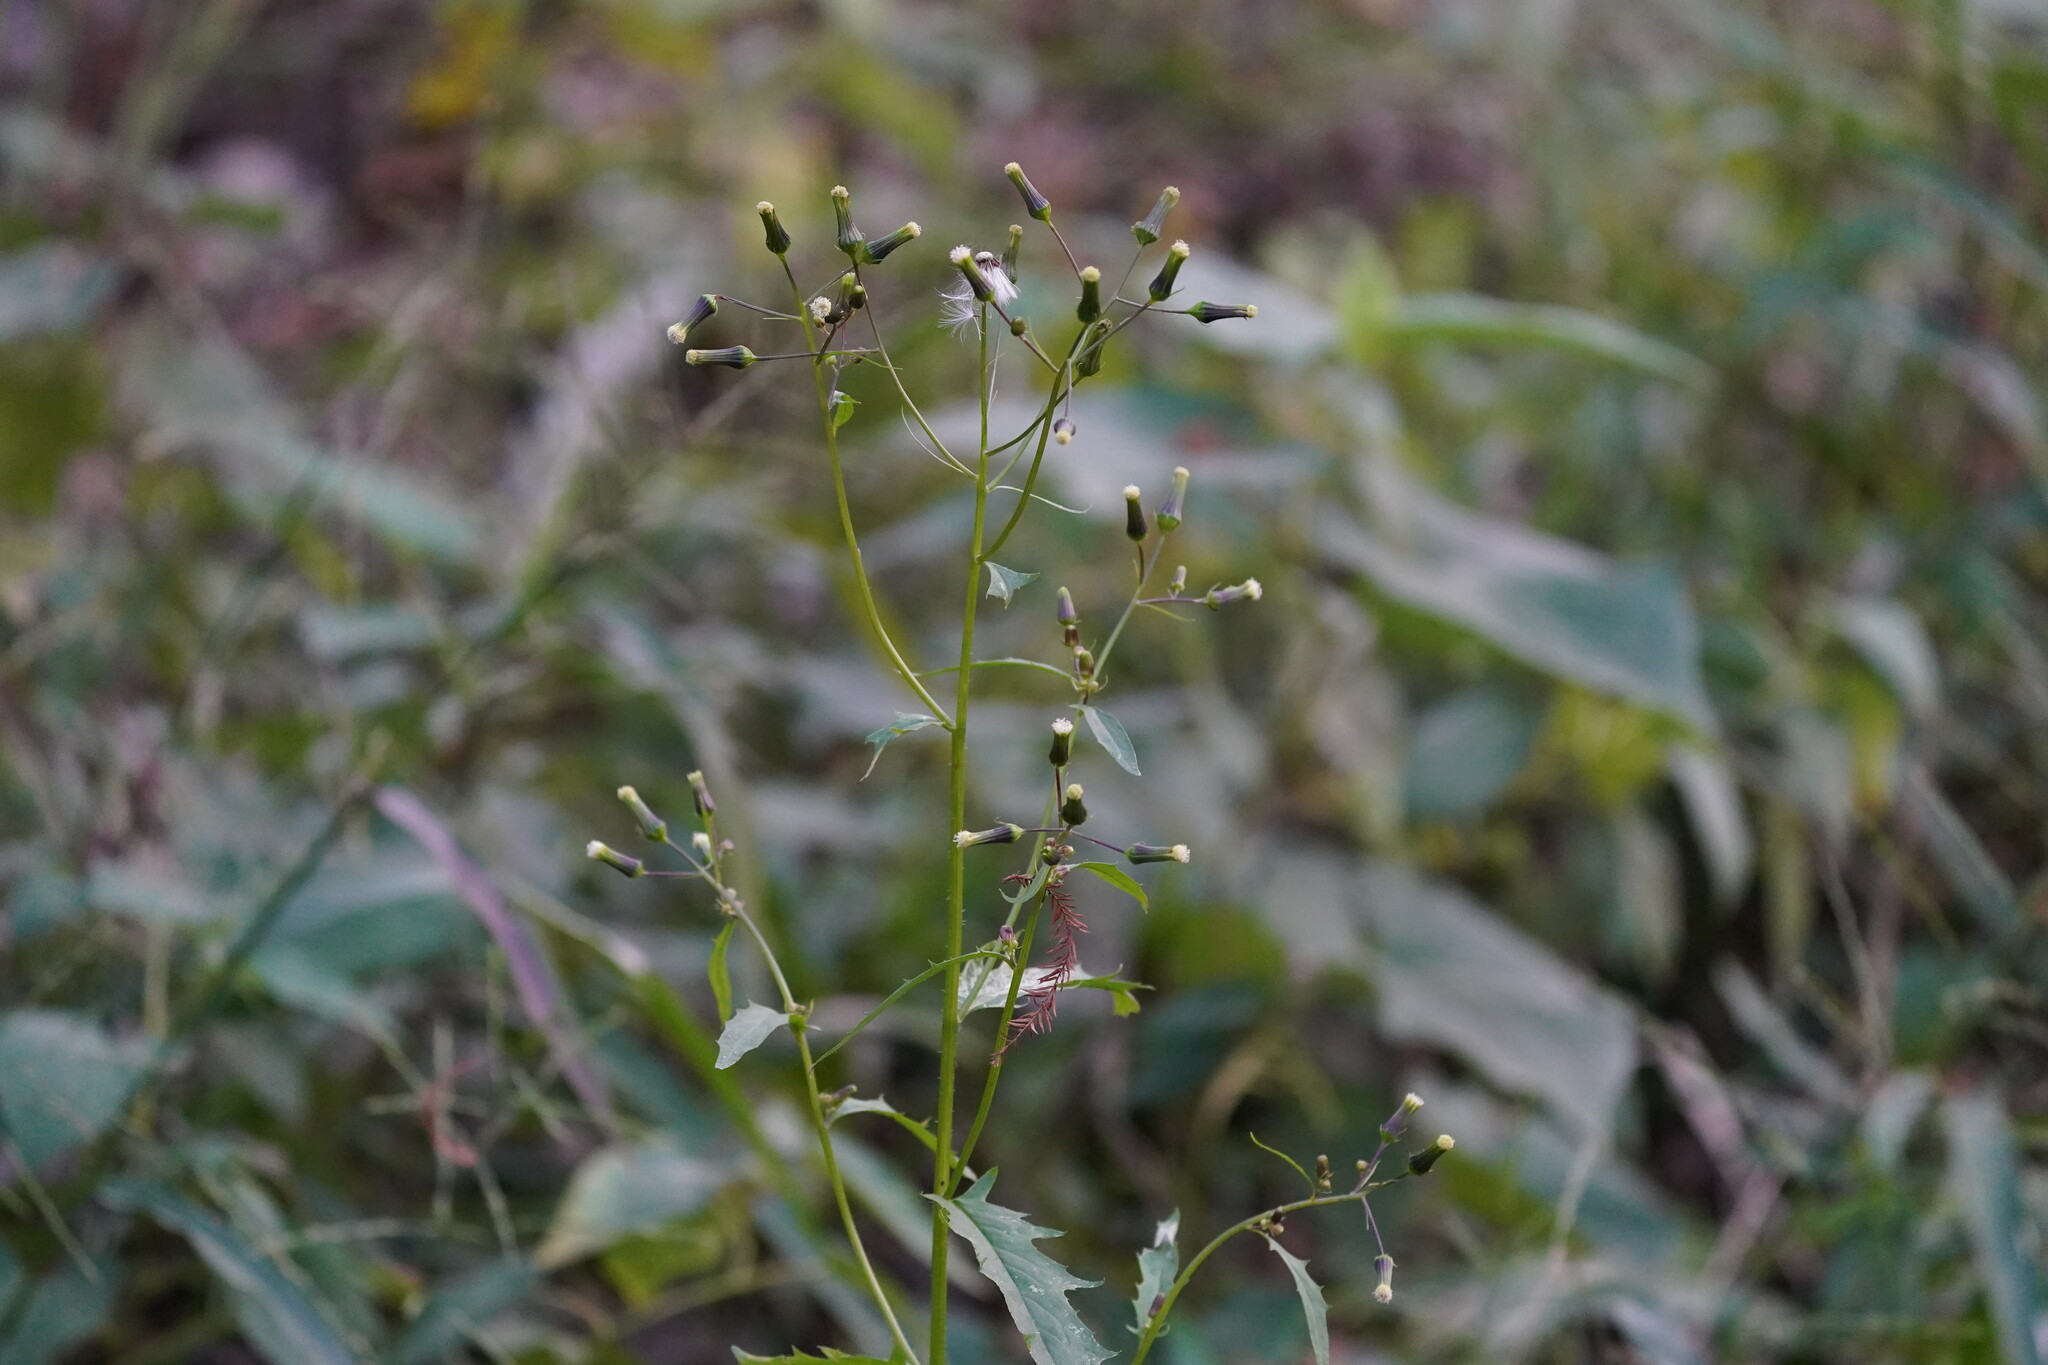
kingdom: Plantae
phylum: Tracheophyta
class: Magnoliopsida
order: Asterales
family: Asteraceae
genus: Erechtites
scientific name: Erechtites hieraciifolius
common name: American burnweed
